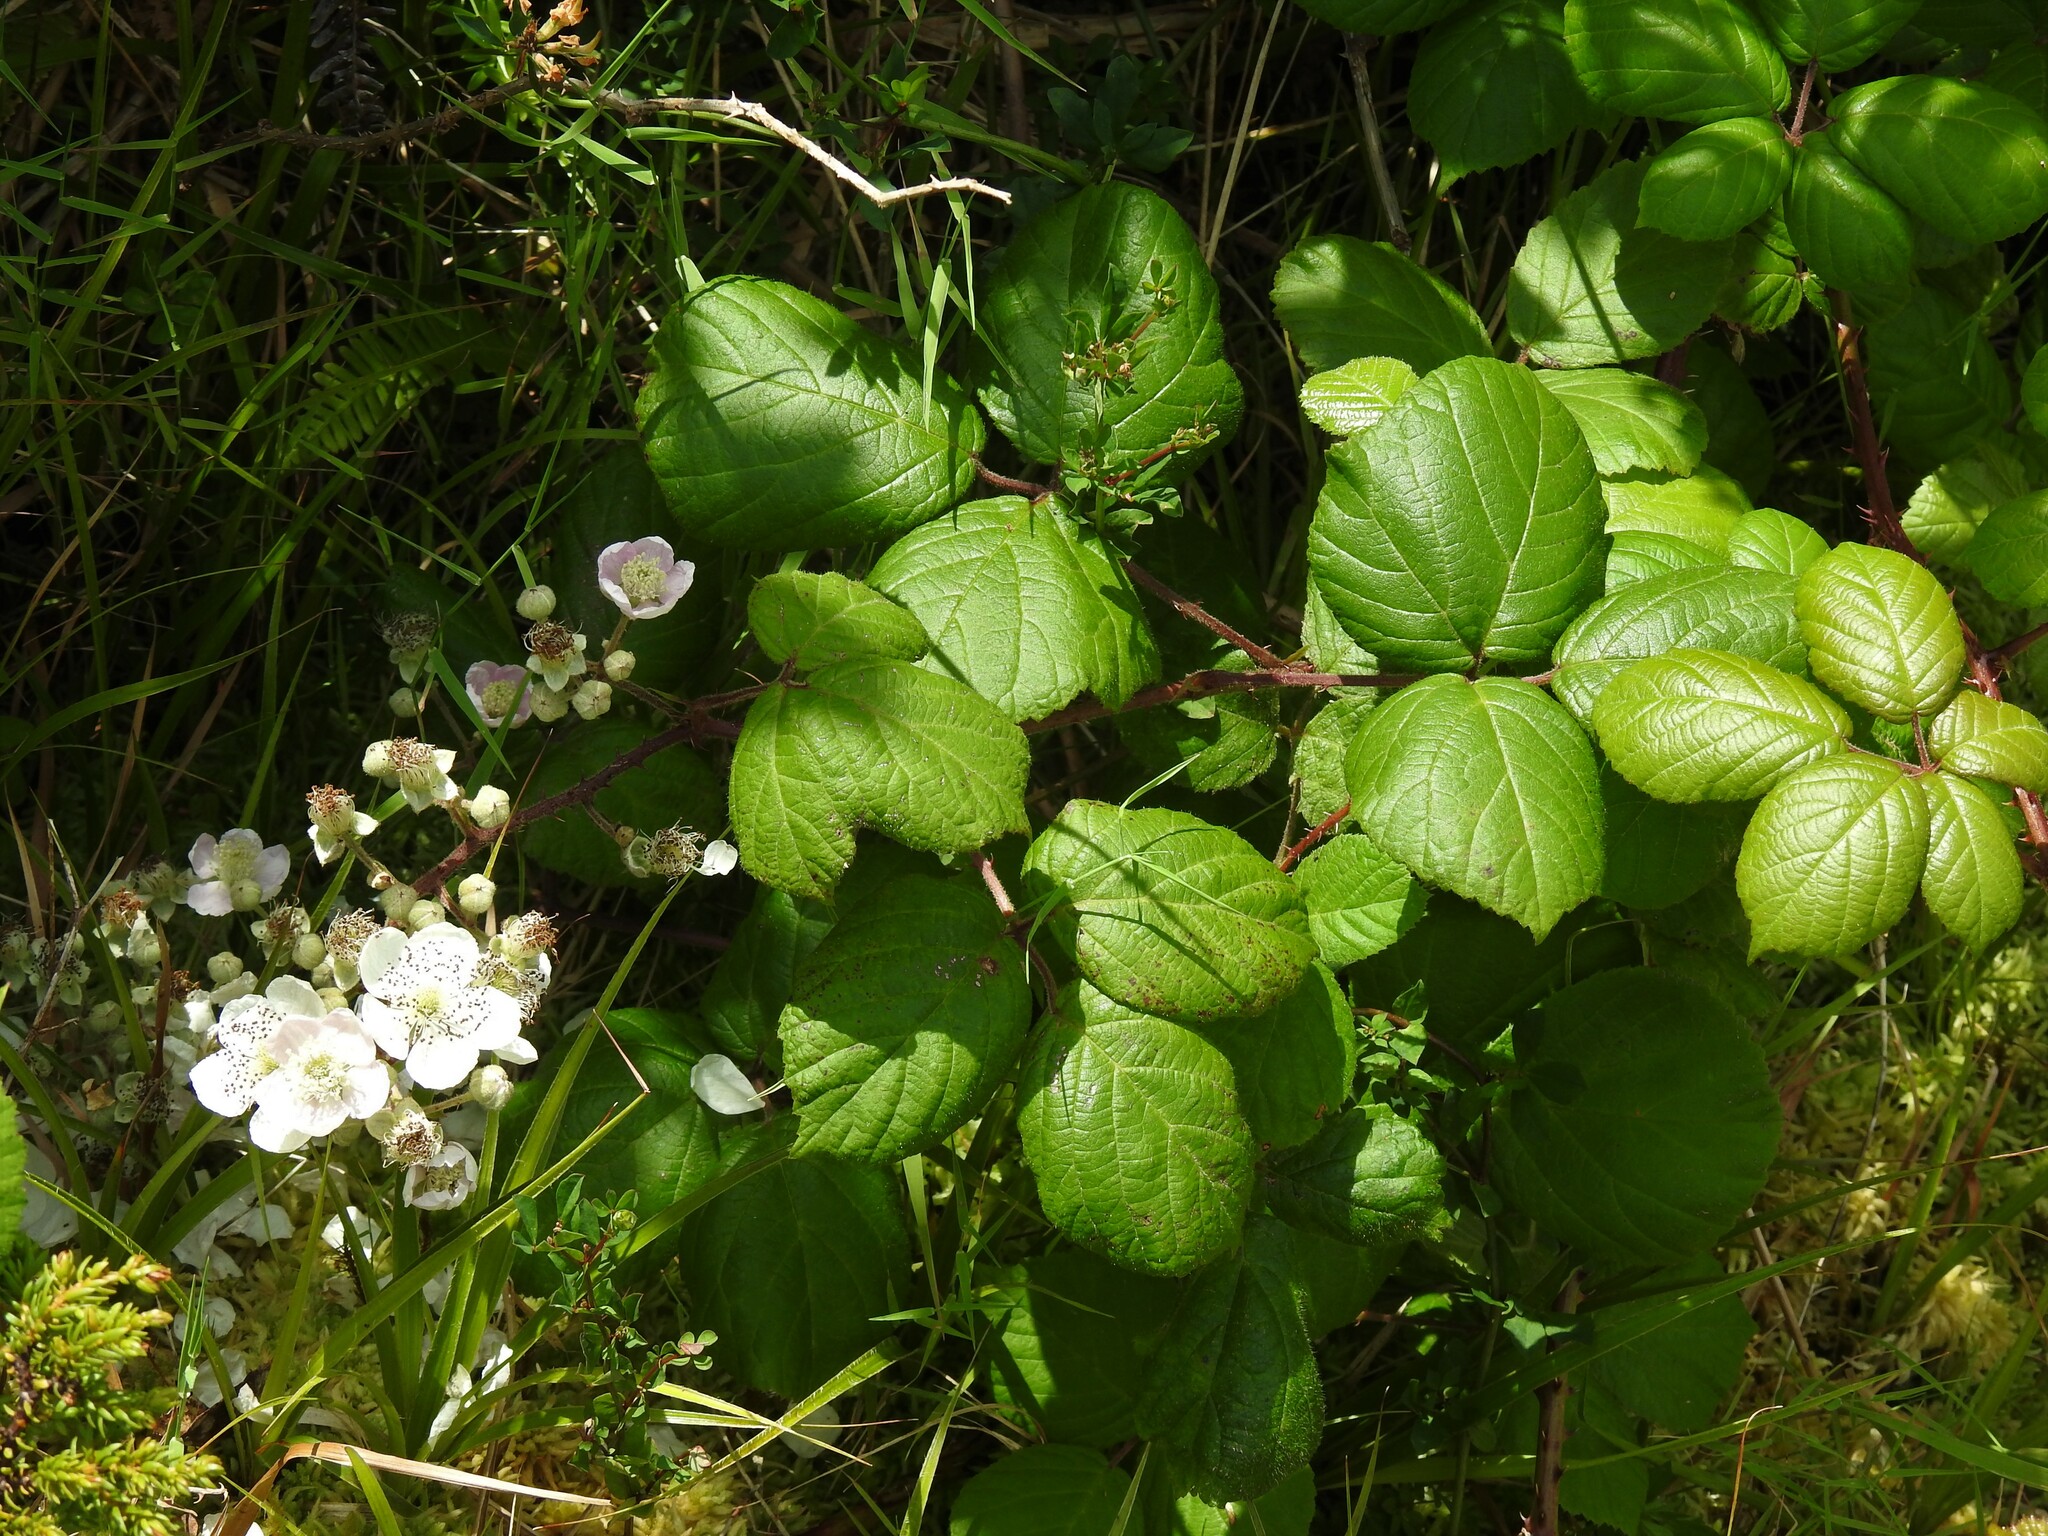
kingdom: Plantae
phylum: Tracheophyta
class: Magnoliopsida
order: Rosales
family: Rosaceae
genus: Rubus
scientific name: Rubus hochstetterorum
